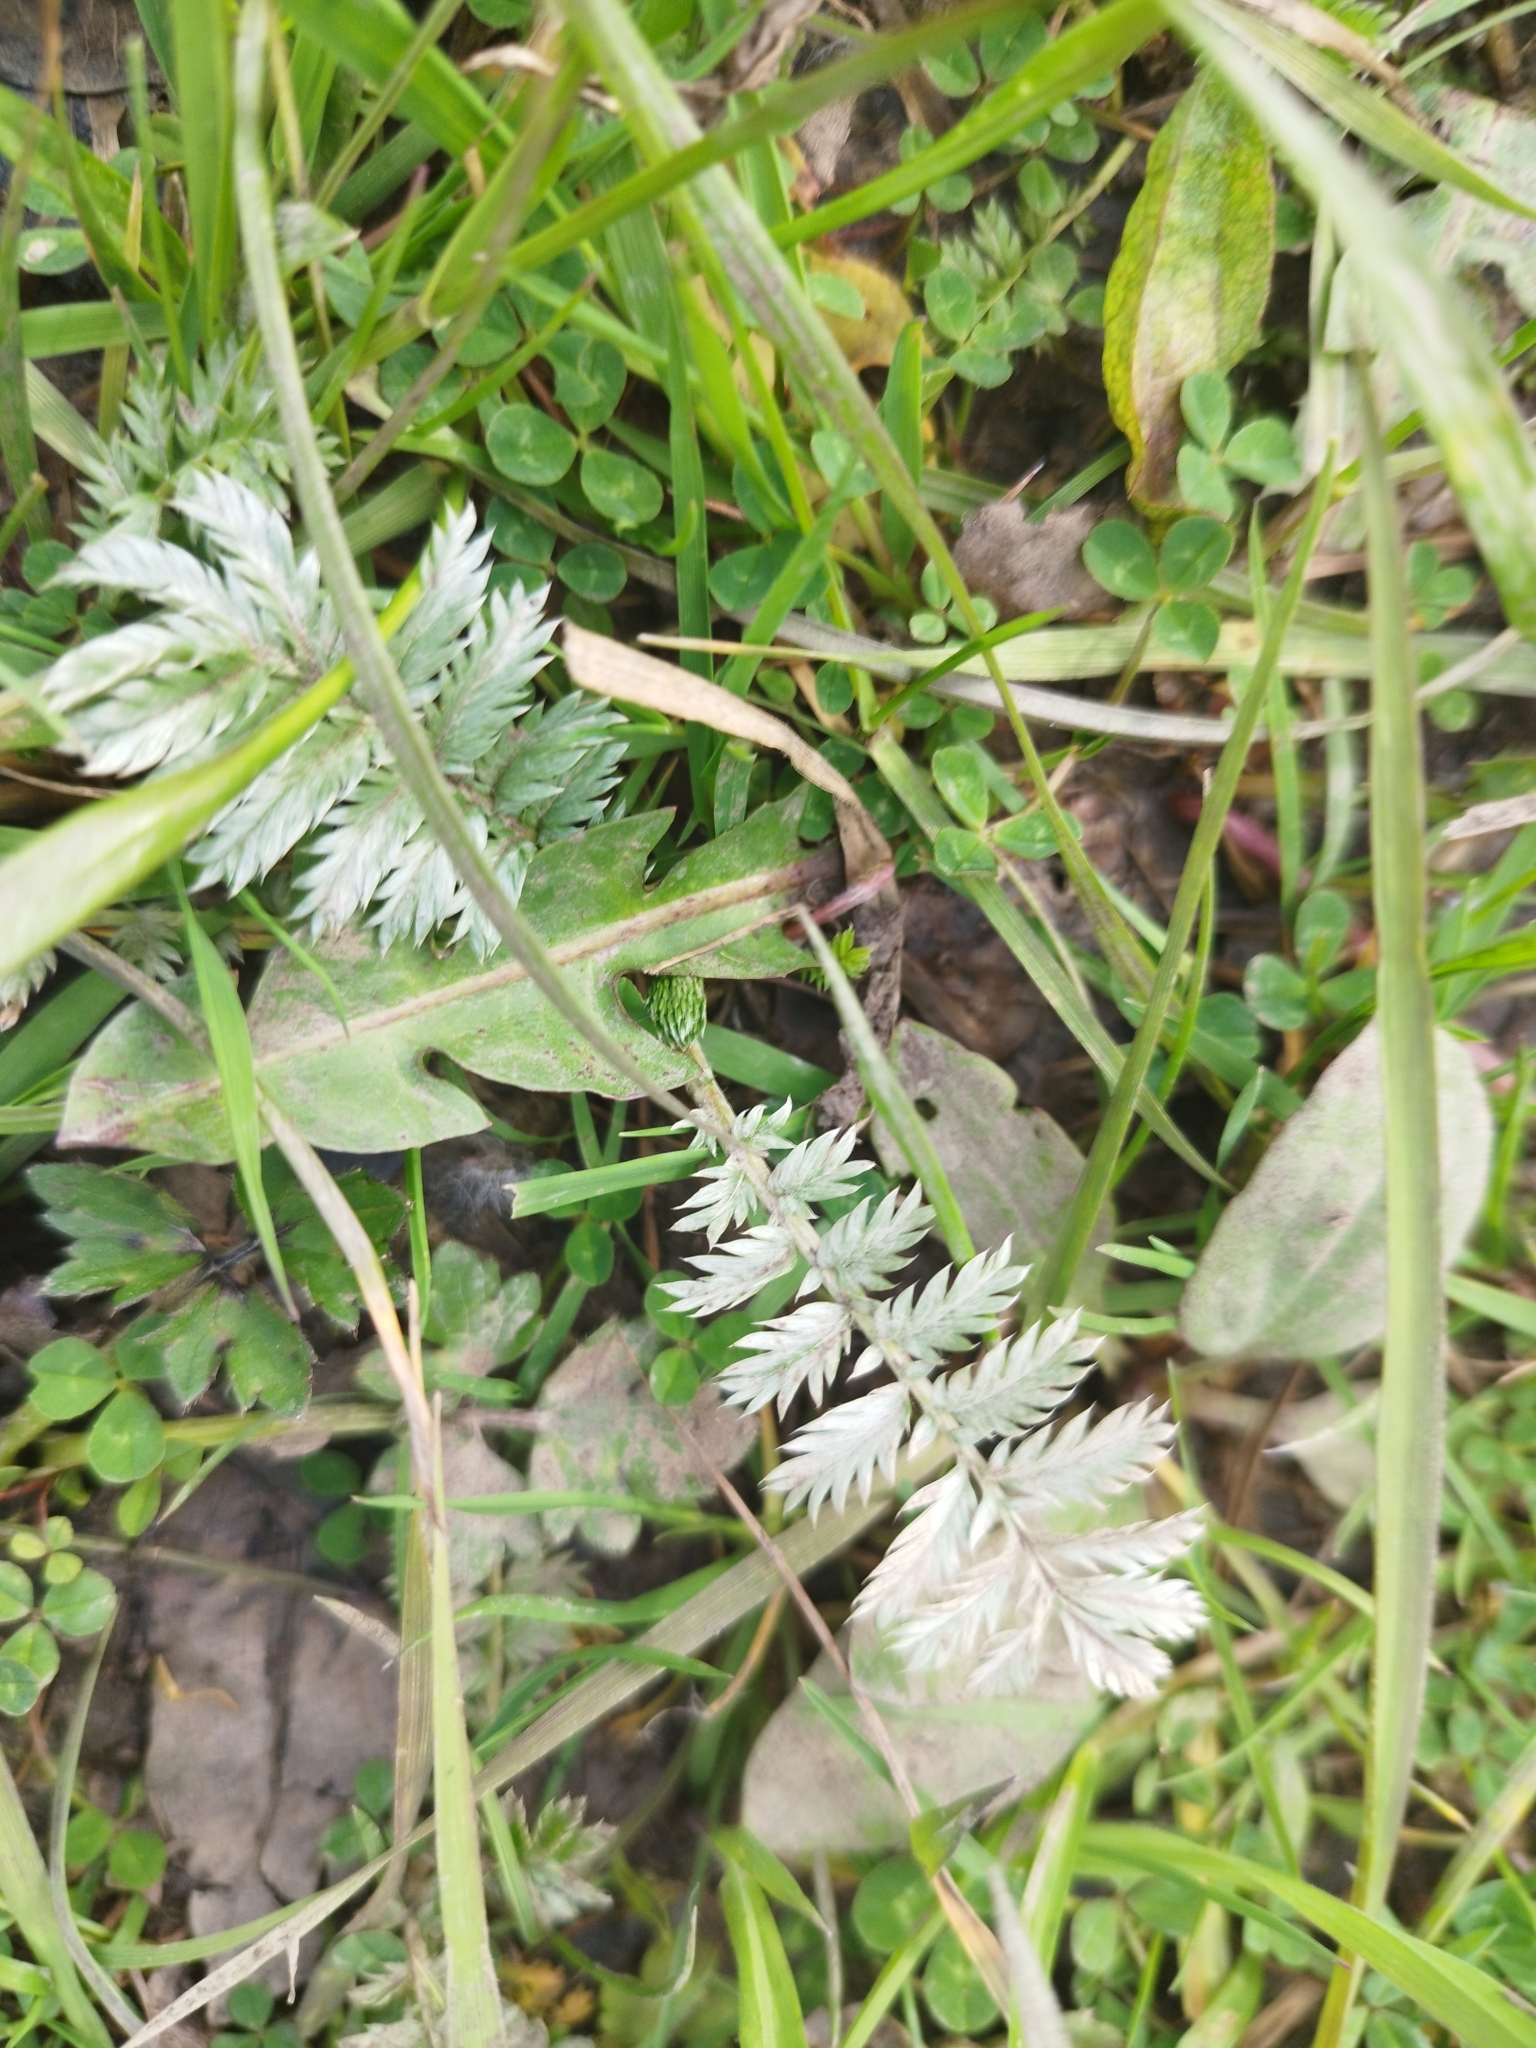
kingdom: Plantae
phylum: Tracheophyta
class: Magnoliopsida
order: Rosales
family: Rosaceae
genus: Argentina
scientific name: Argentina anserina
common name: Common silverweed
